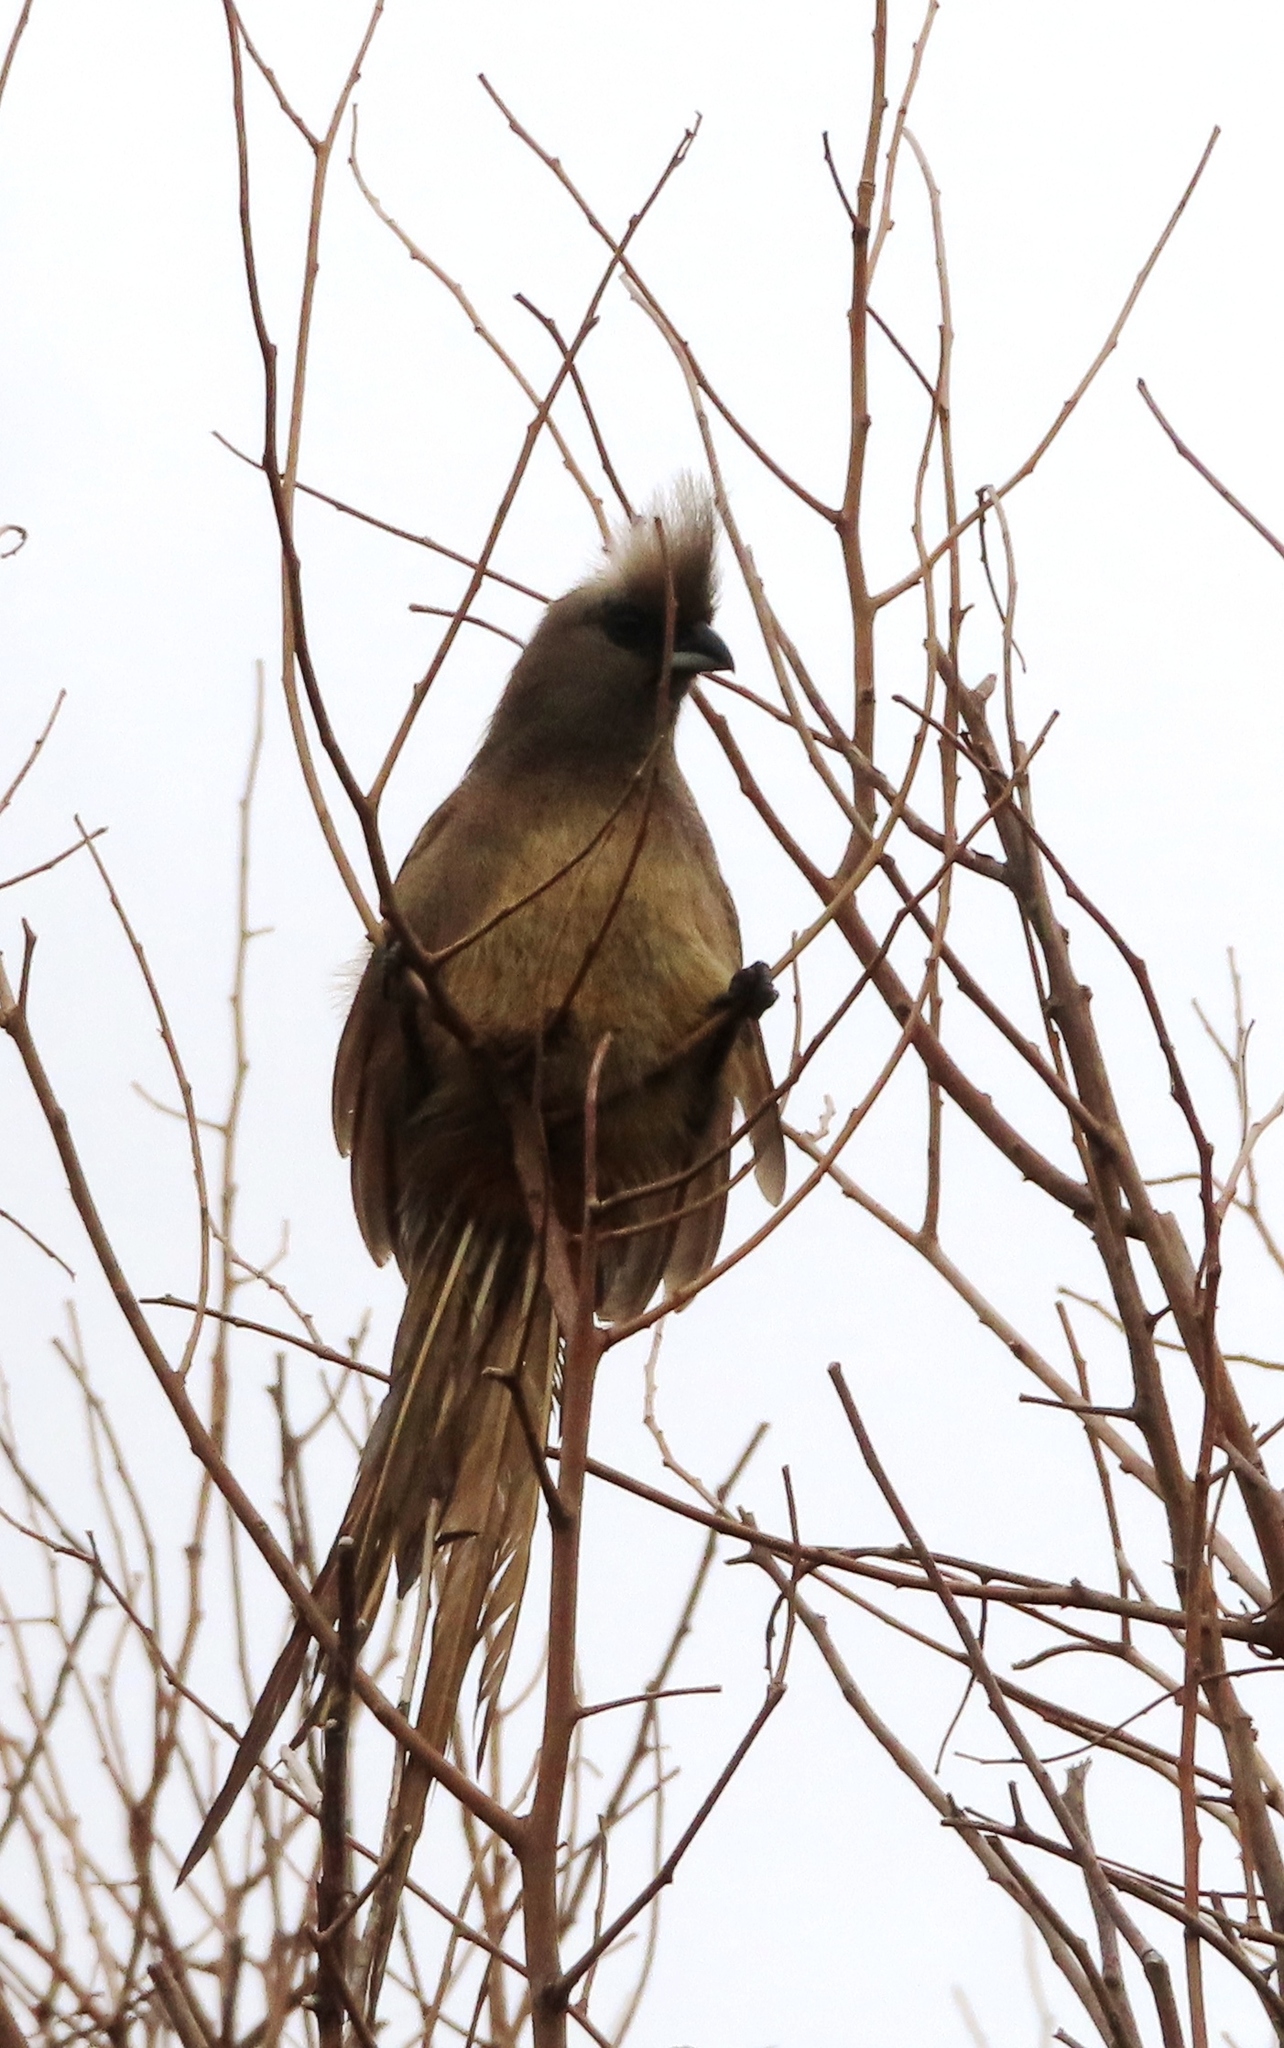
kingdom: Animalia
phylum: Chordata
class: Aves
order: Coliiformes
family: Coliidae
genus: Colius
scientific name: Colius striatus
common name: Speckled mousebird
